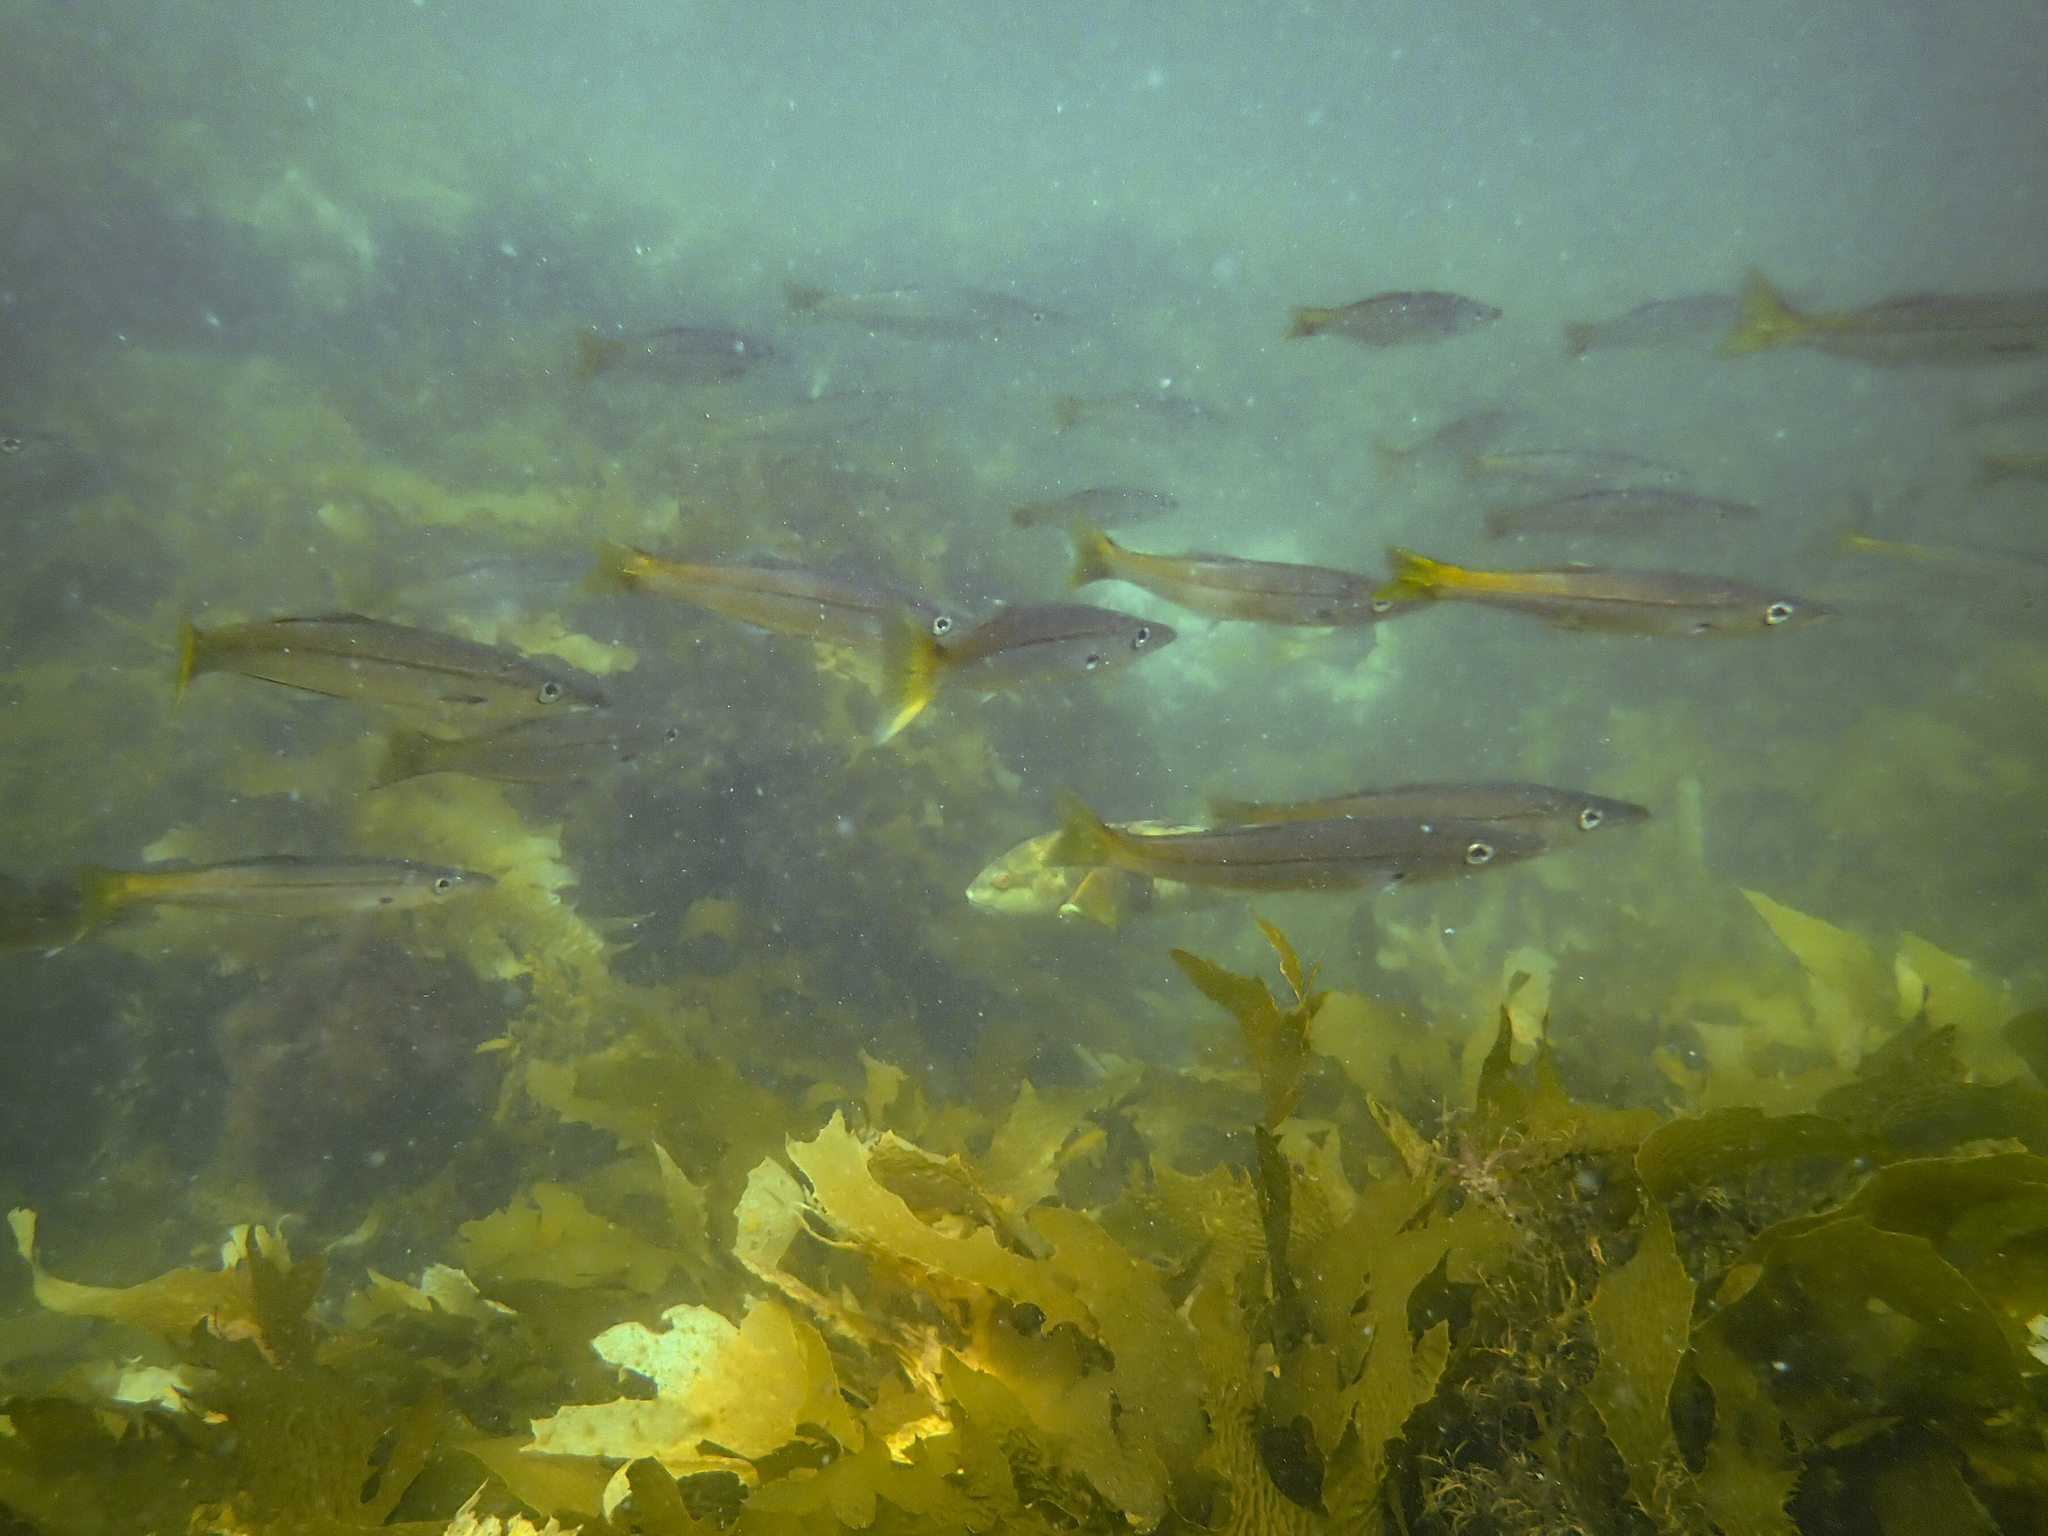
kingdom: Animalia
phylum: Chordata
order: Perciformes
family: Dinolestidae
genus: Dinolestes
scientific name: Dinolestes lewini
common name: Jack pike
